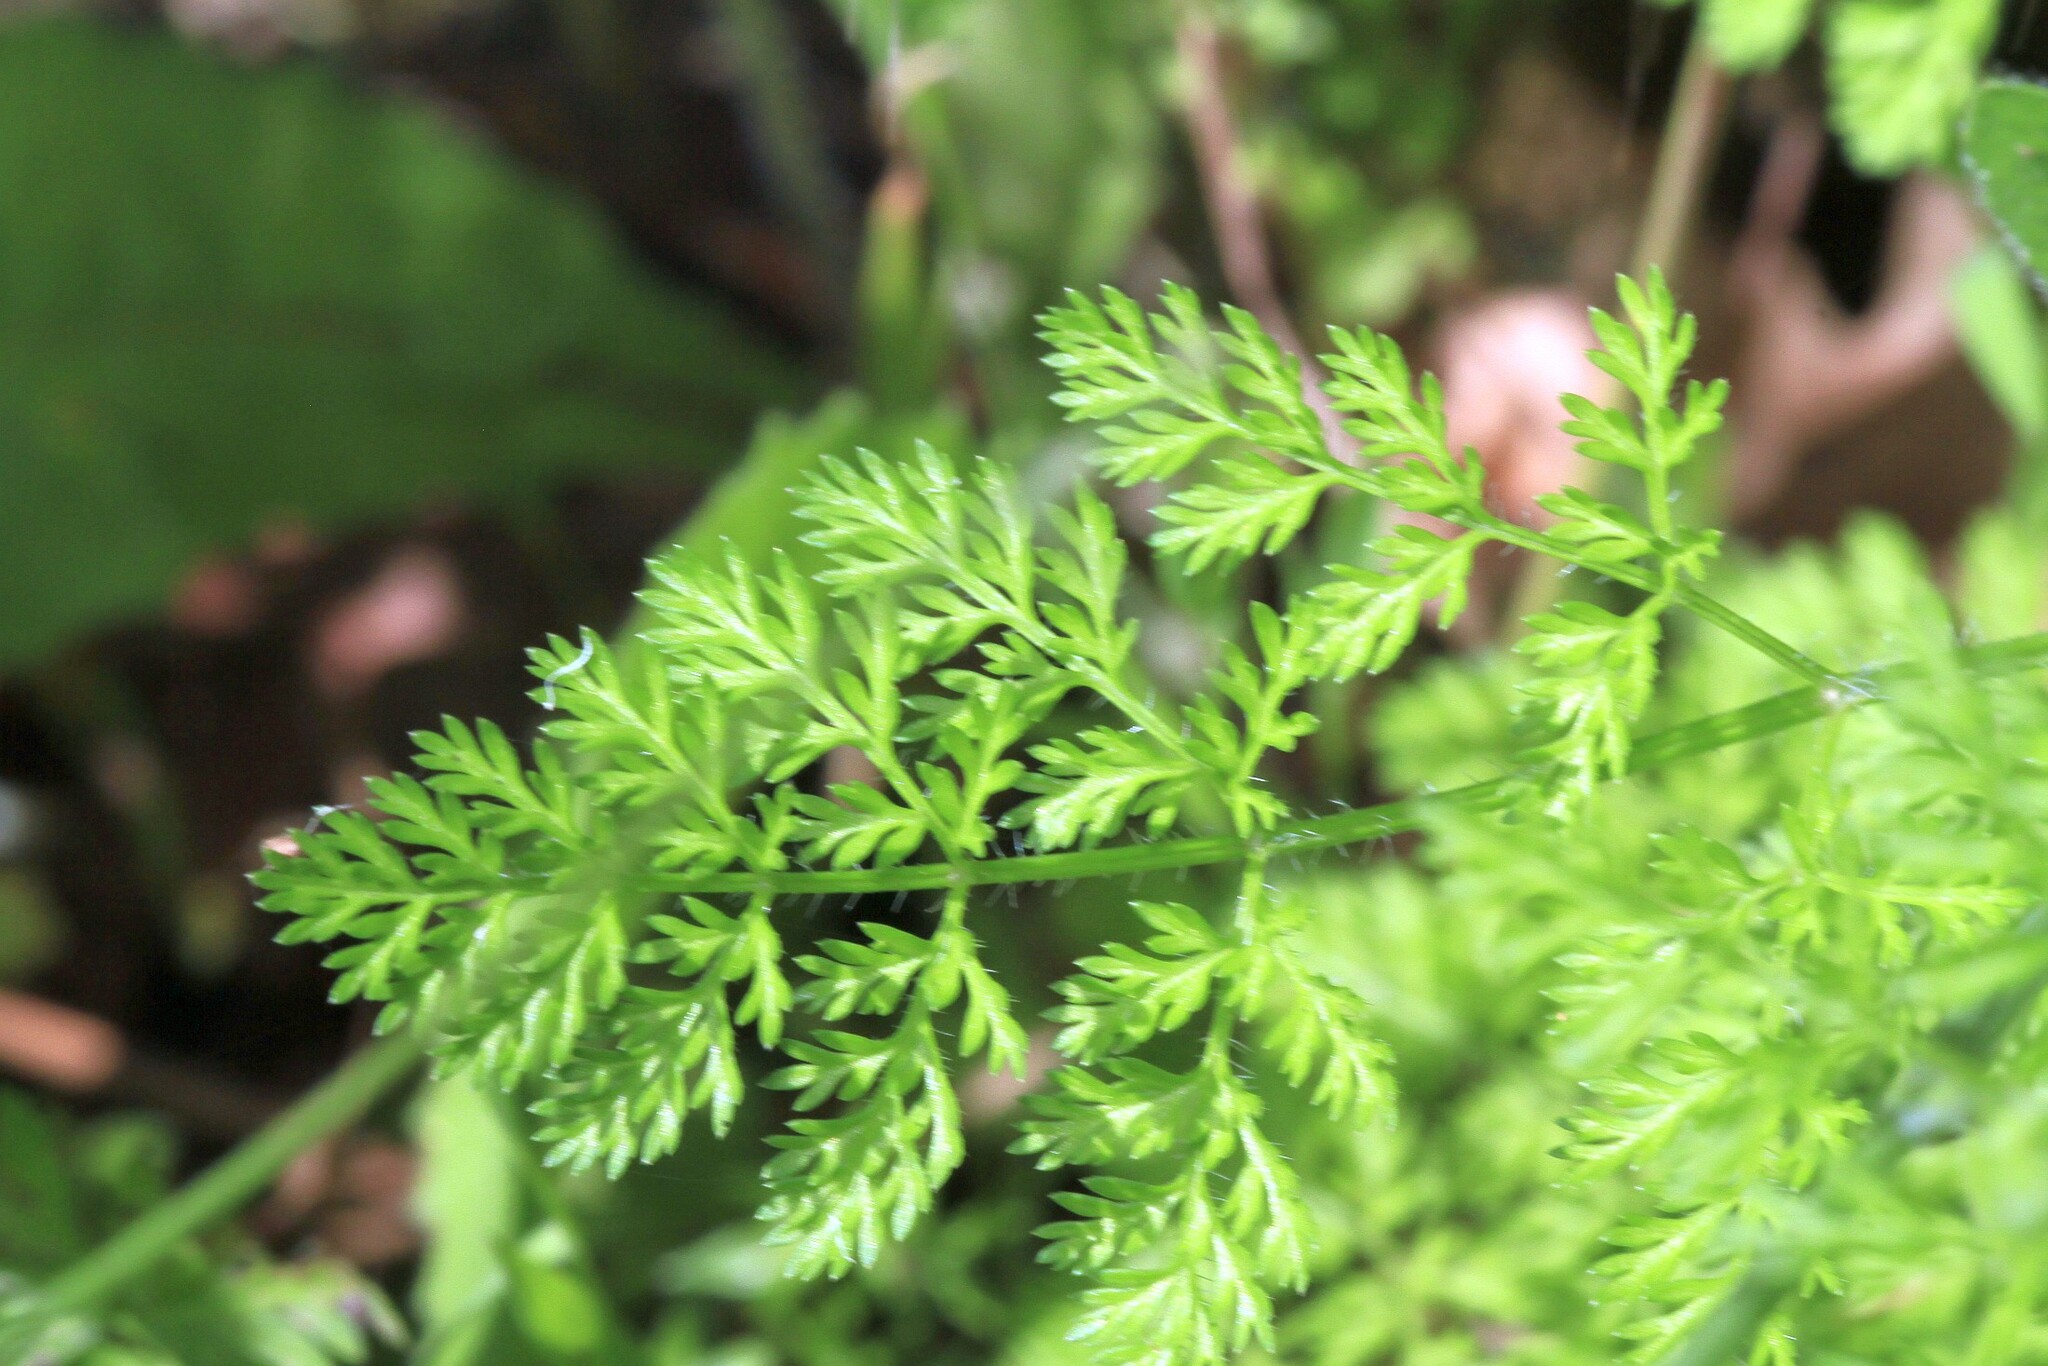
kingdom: Plantae
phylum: Tracheophyta
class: Magnoliopsida
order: Apiales
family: Apiaceae
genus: Orlaya
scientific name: Orlaya grandiflora
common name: White lace flower
